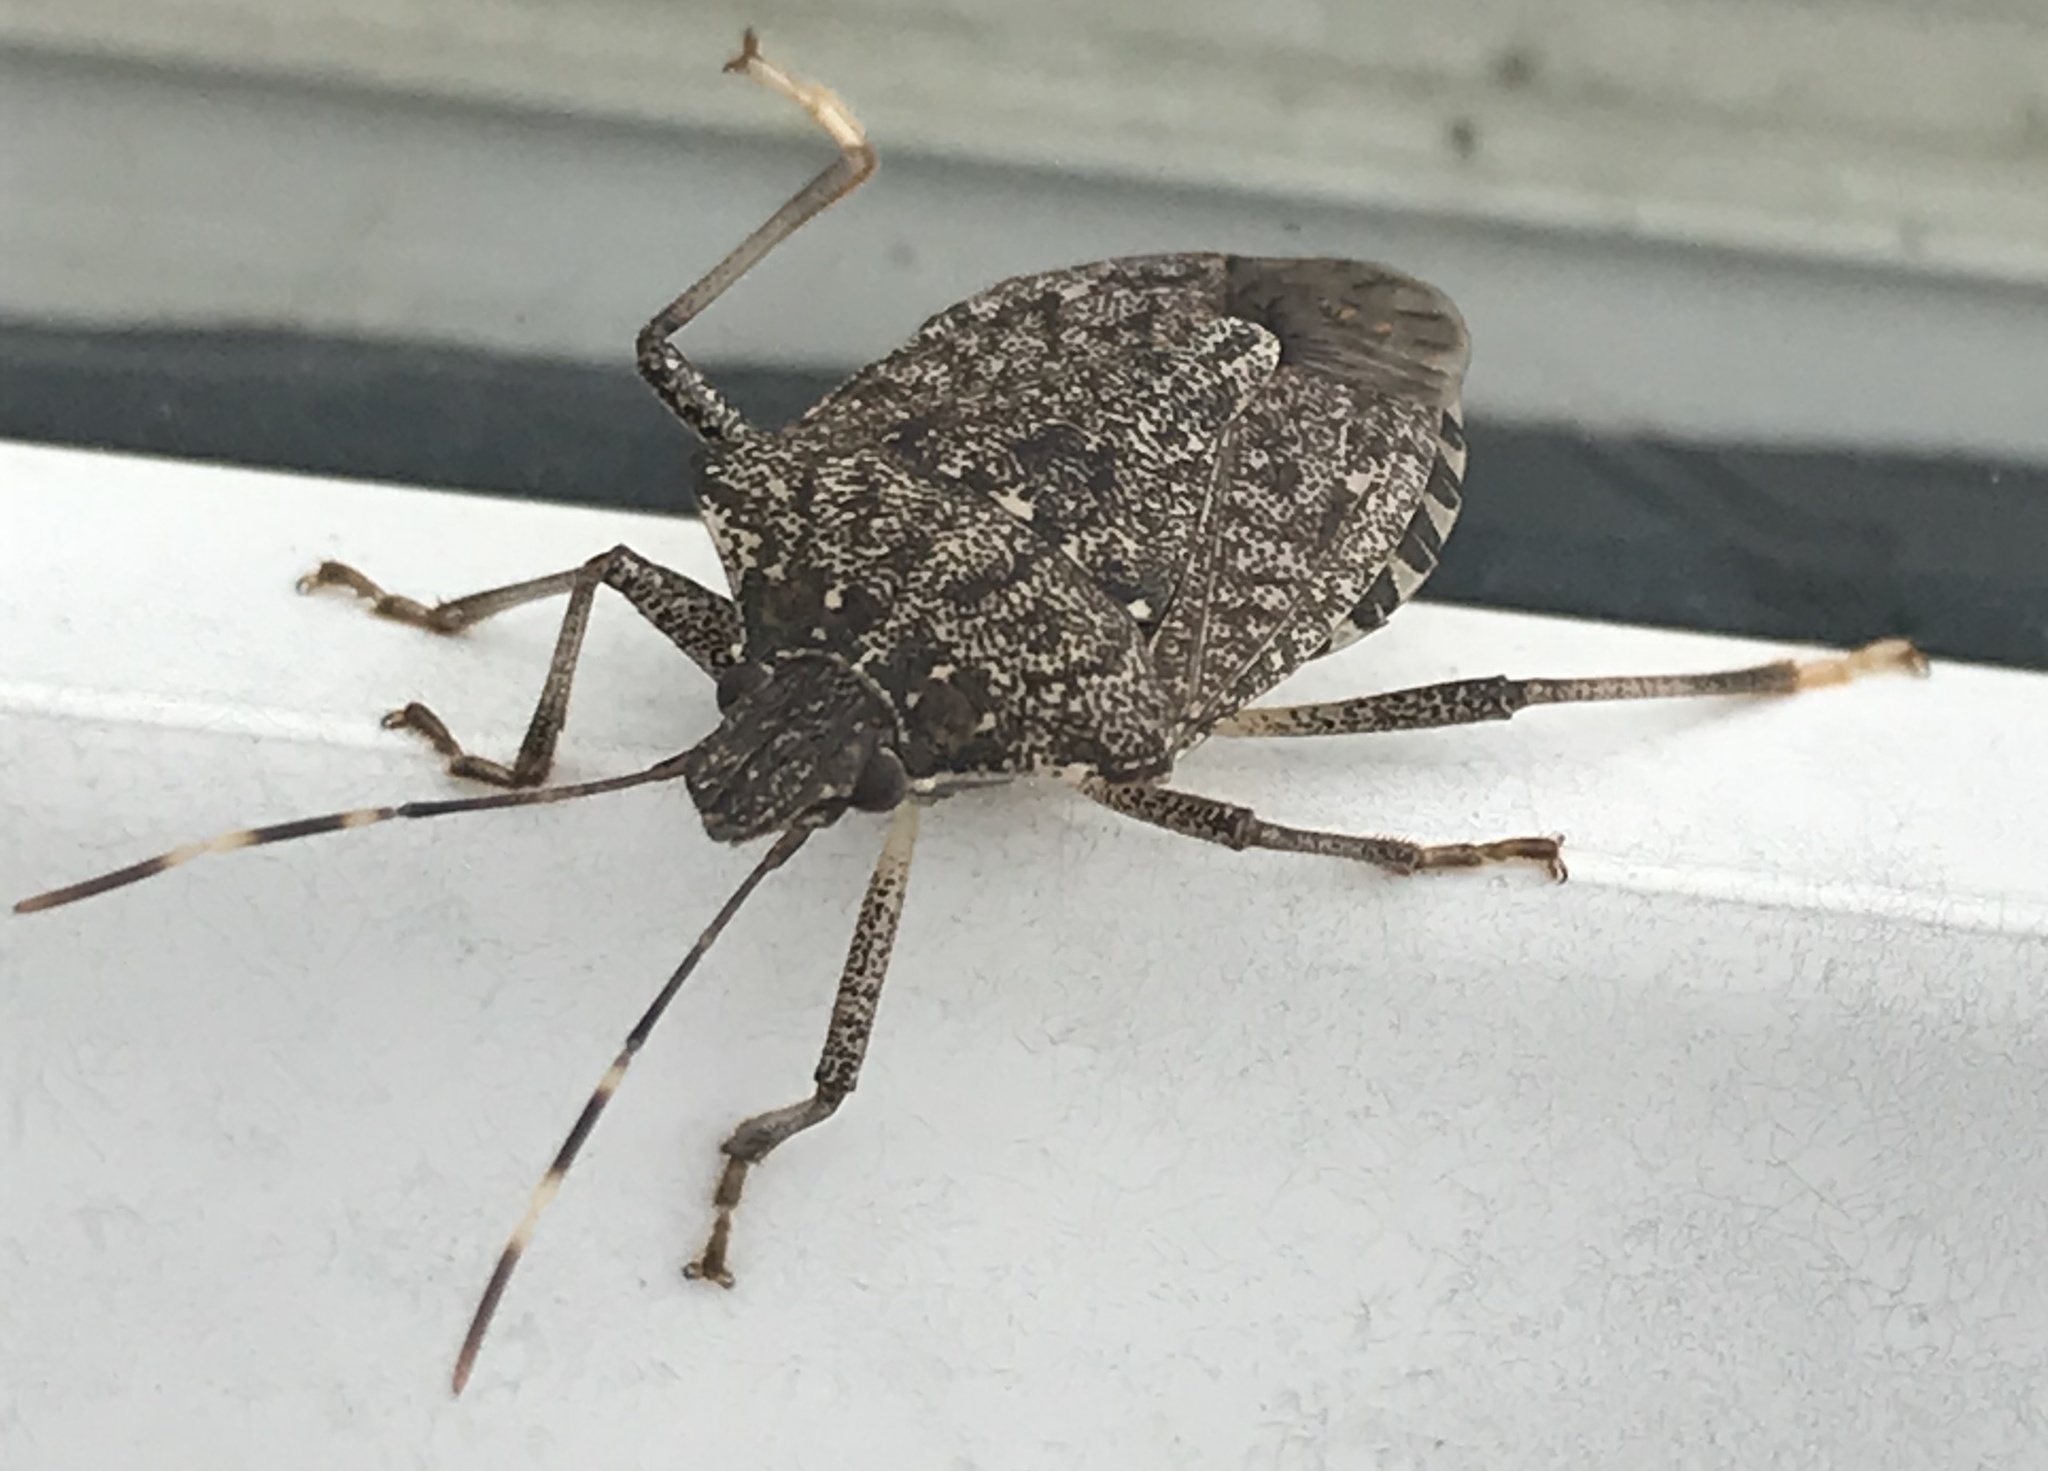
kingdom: Animalia
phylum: Arthropoda
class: Insecta
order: Hemiptera
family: Pentatomidae
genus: Halyomorpha
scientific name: Halyomorpha halys
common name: Brown marmorated stink bug
